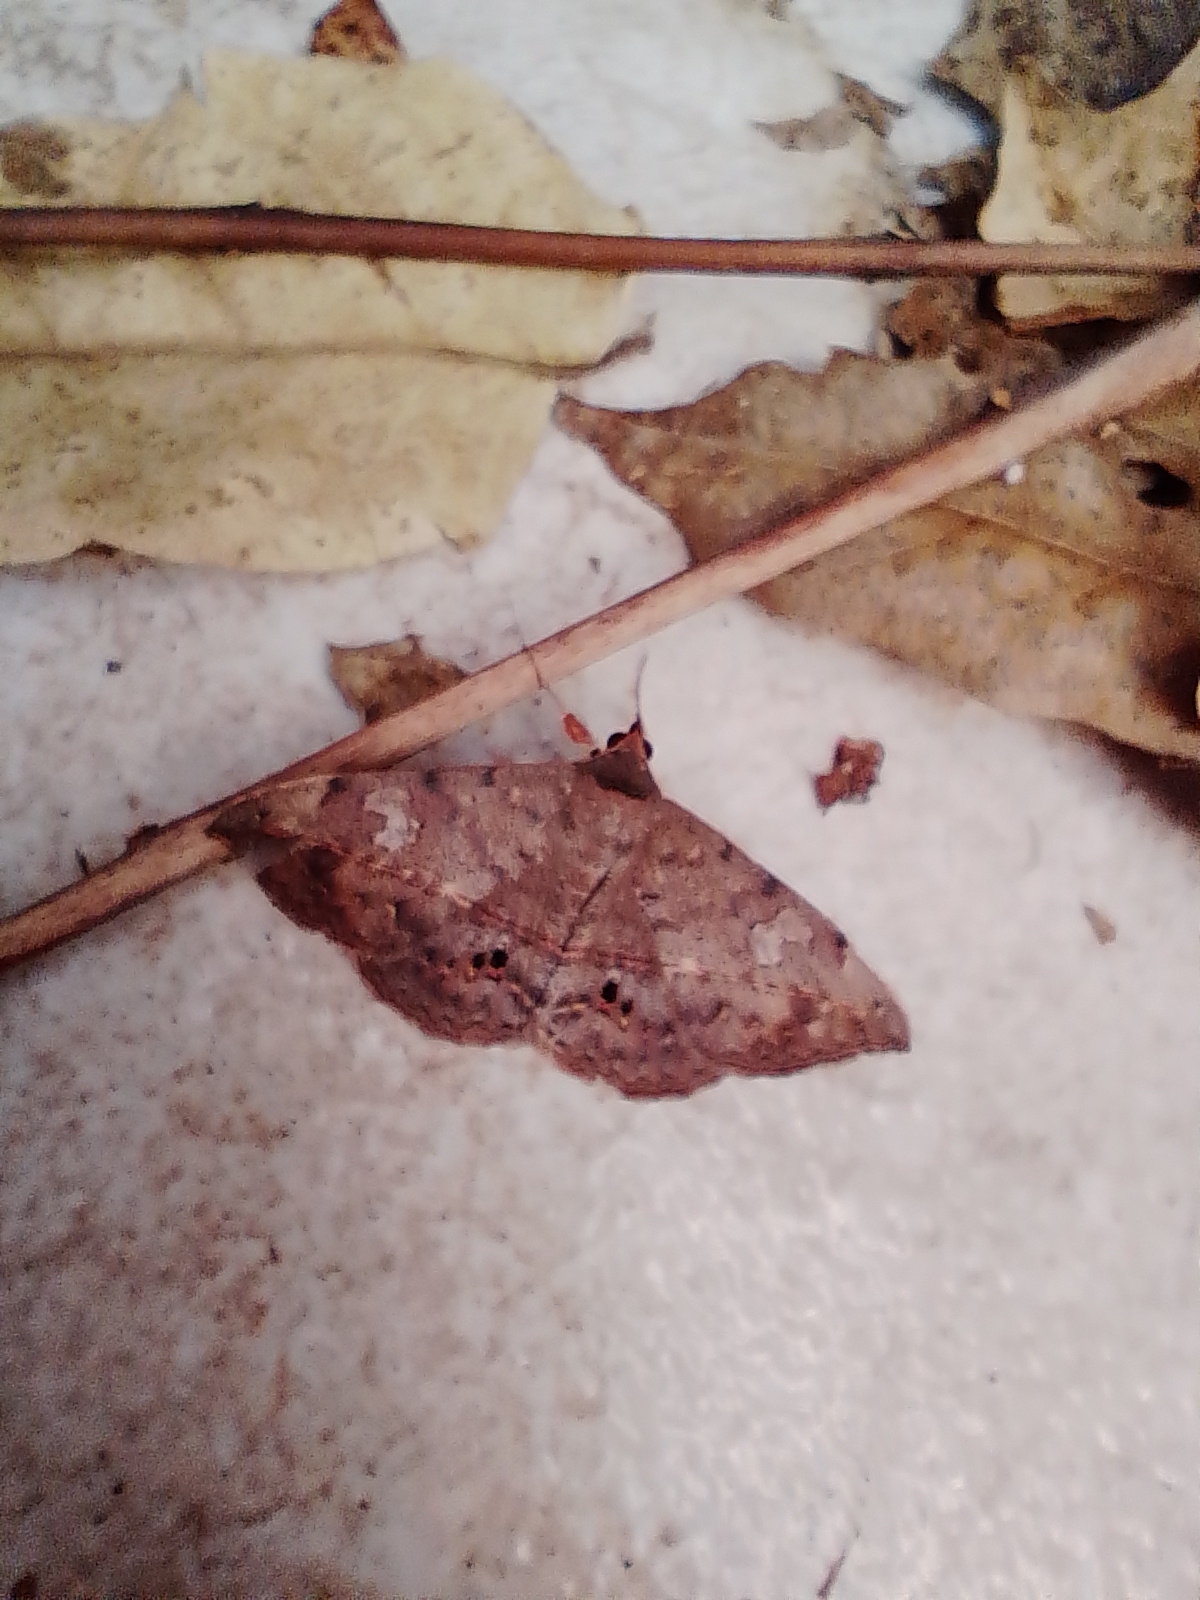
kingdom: Animalia
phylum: Arthropoda
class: Insecta
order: Lepidoptera
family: Erebidae
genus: Anticarsia
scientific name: Anticarsia gemmatalis
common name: Cutworm moth
